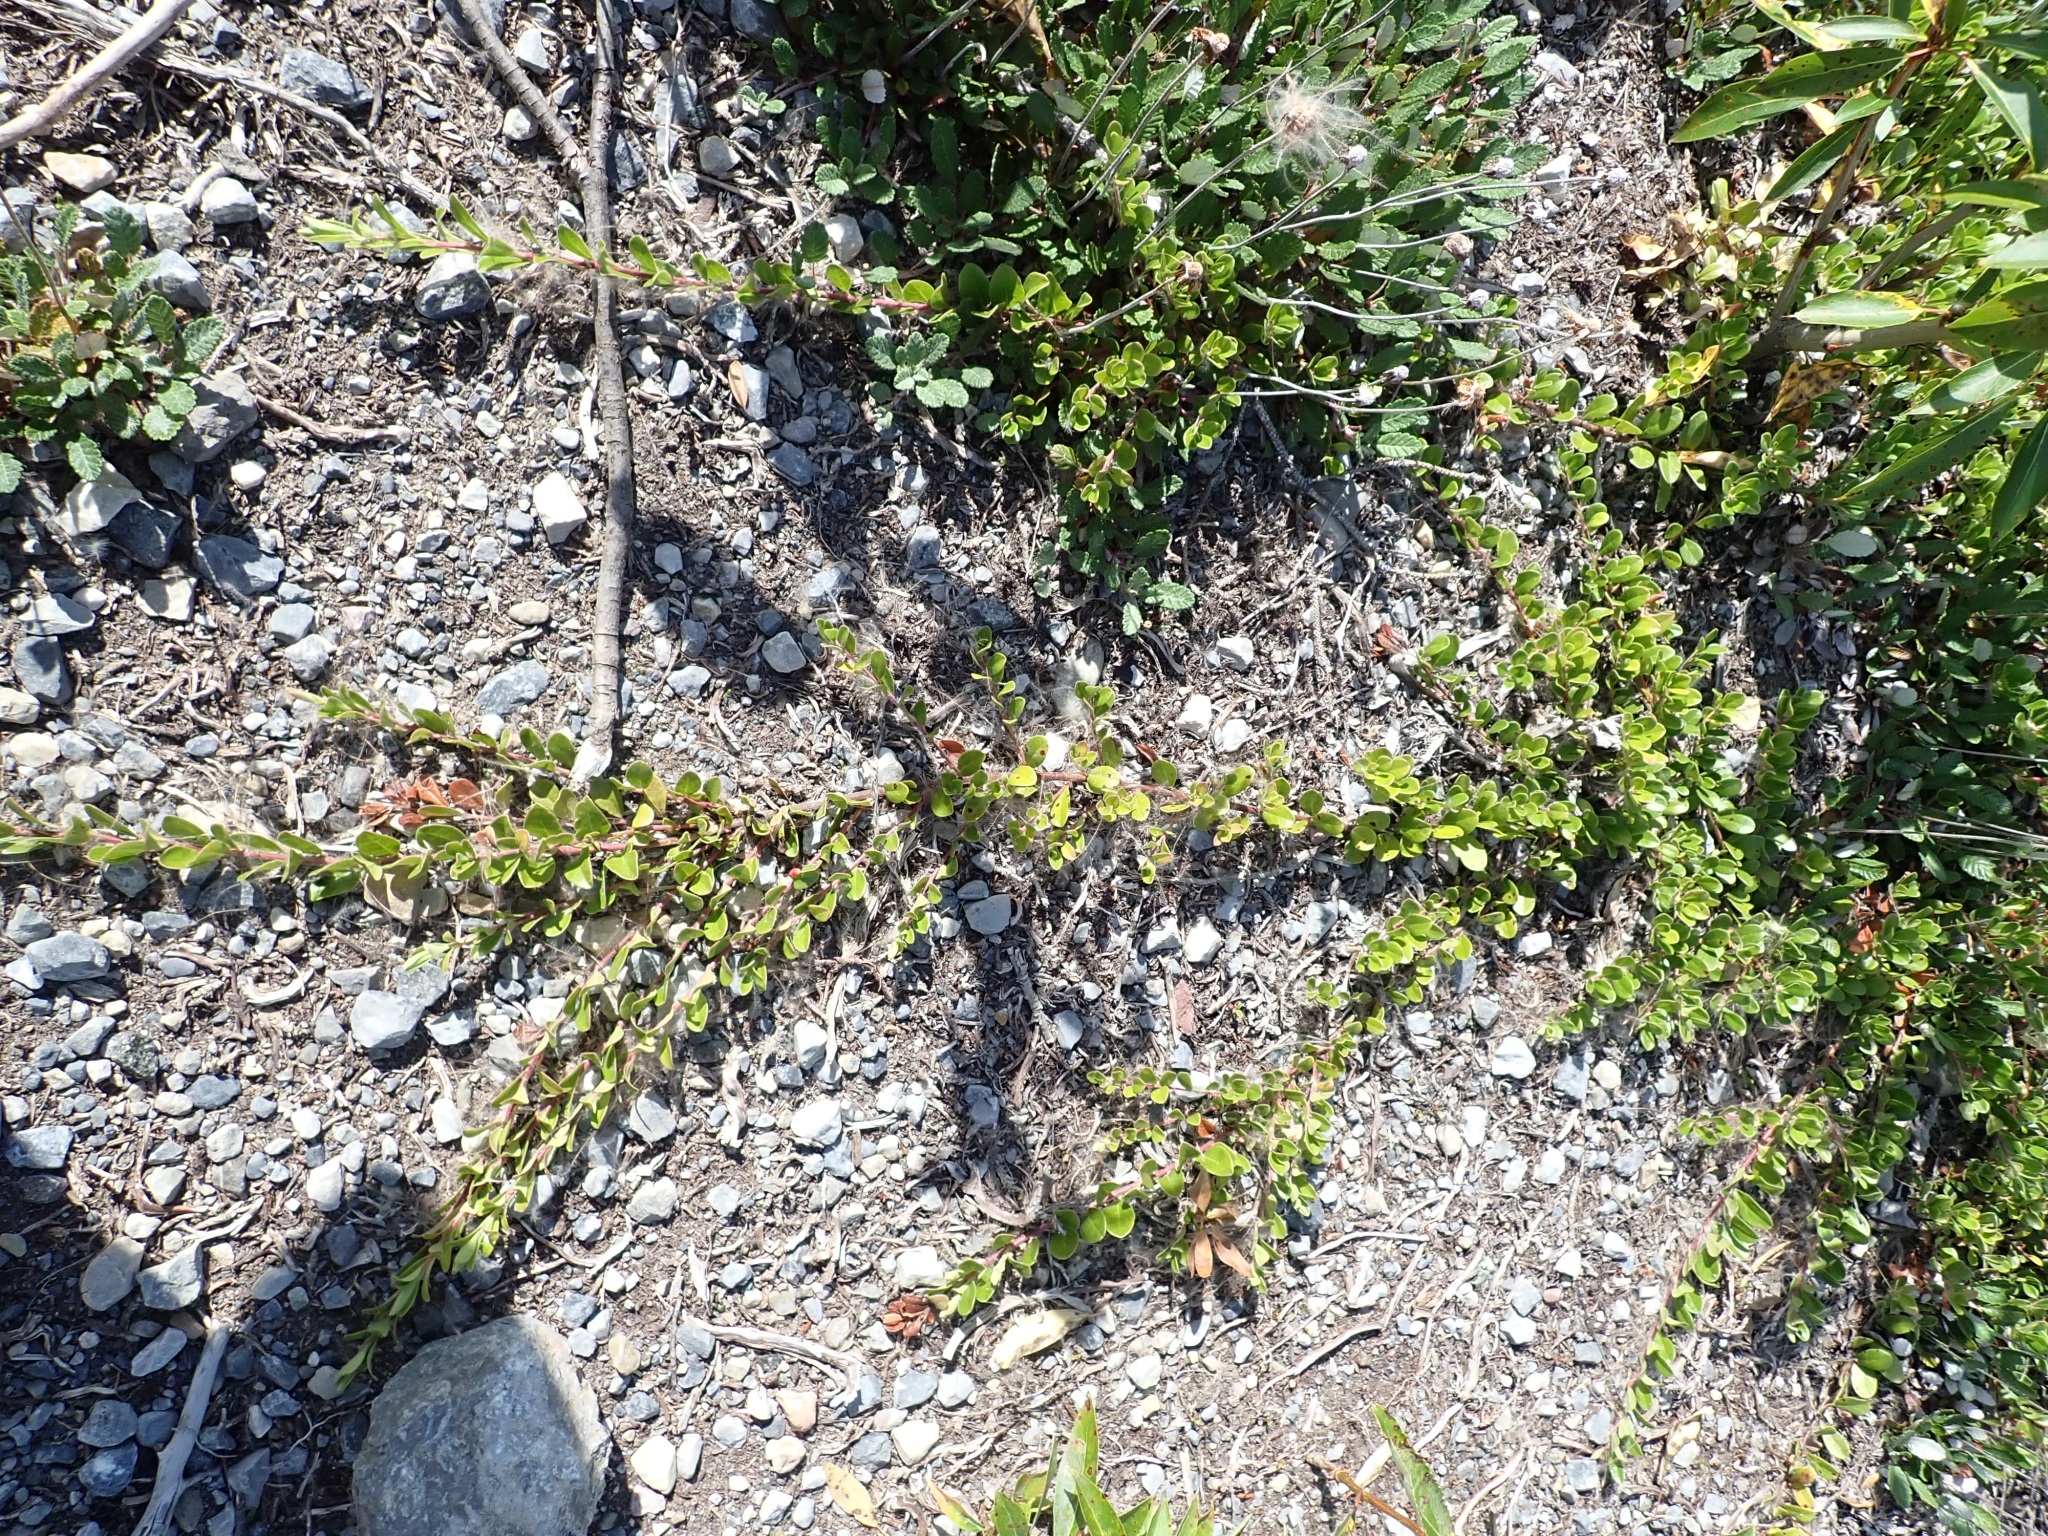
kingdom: Plantae
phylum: Tracheophyta
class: Magnoliopsida
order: Ericales
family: Ericaceae
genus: Arctostaphylos
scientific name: Arctostaphylos uva-ursi
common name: Bearberry
